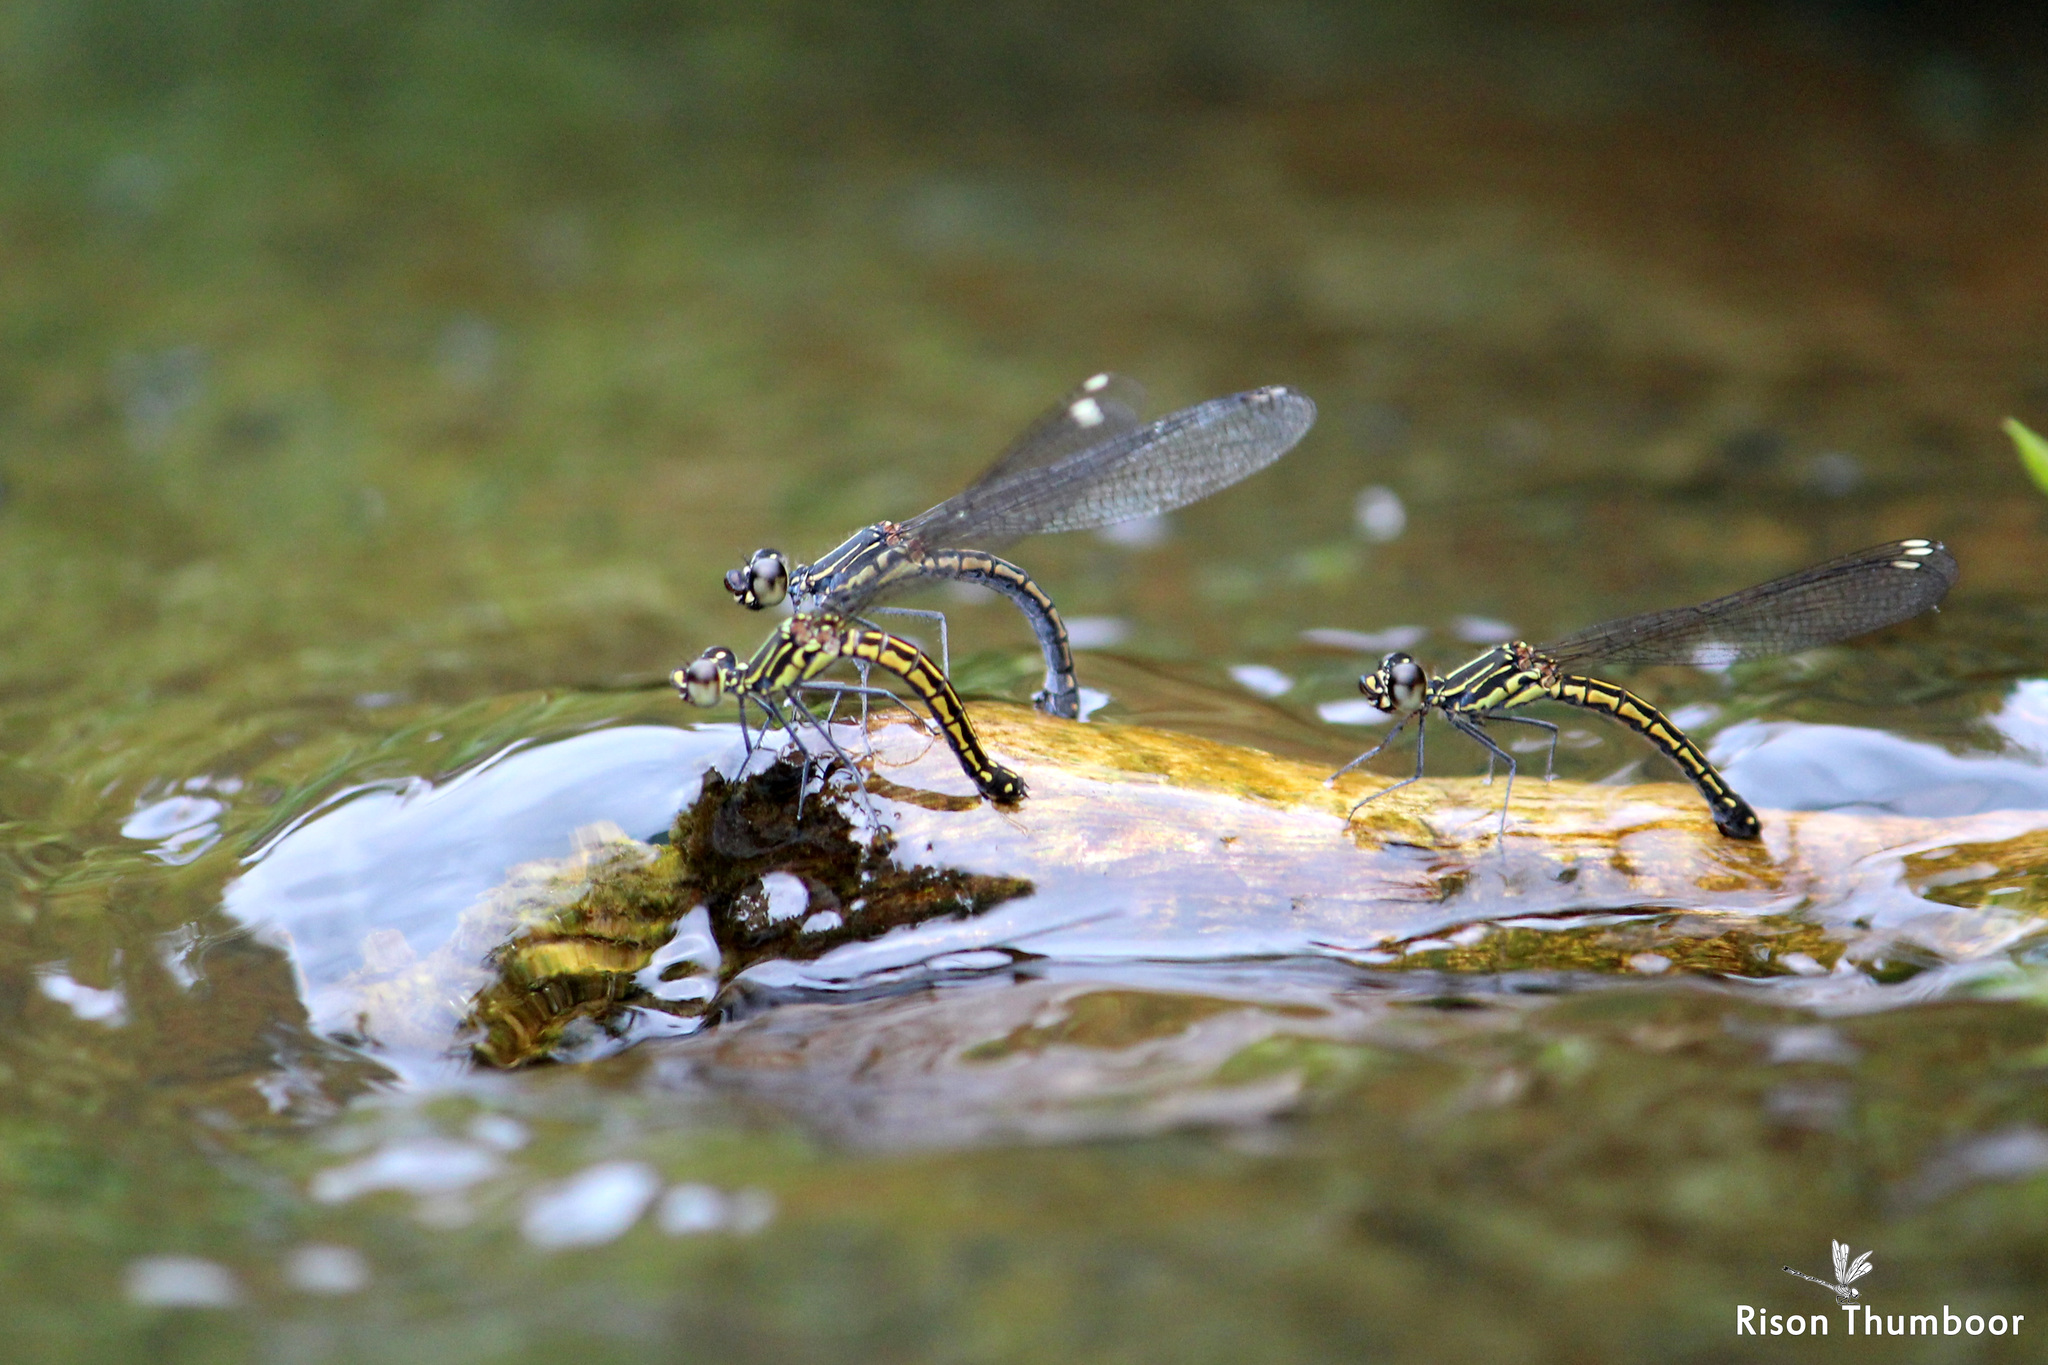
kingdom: Animalia
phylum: Arthropoda
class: Insecta
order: Odonata
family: Chlorocyphidae
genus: Libellago
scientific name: Libellago indica
